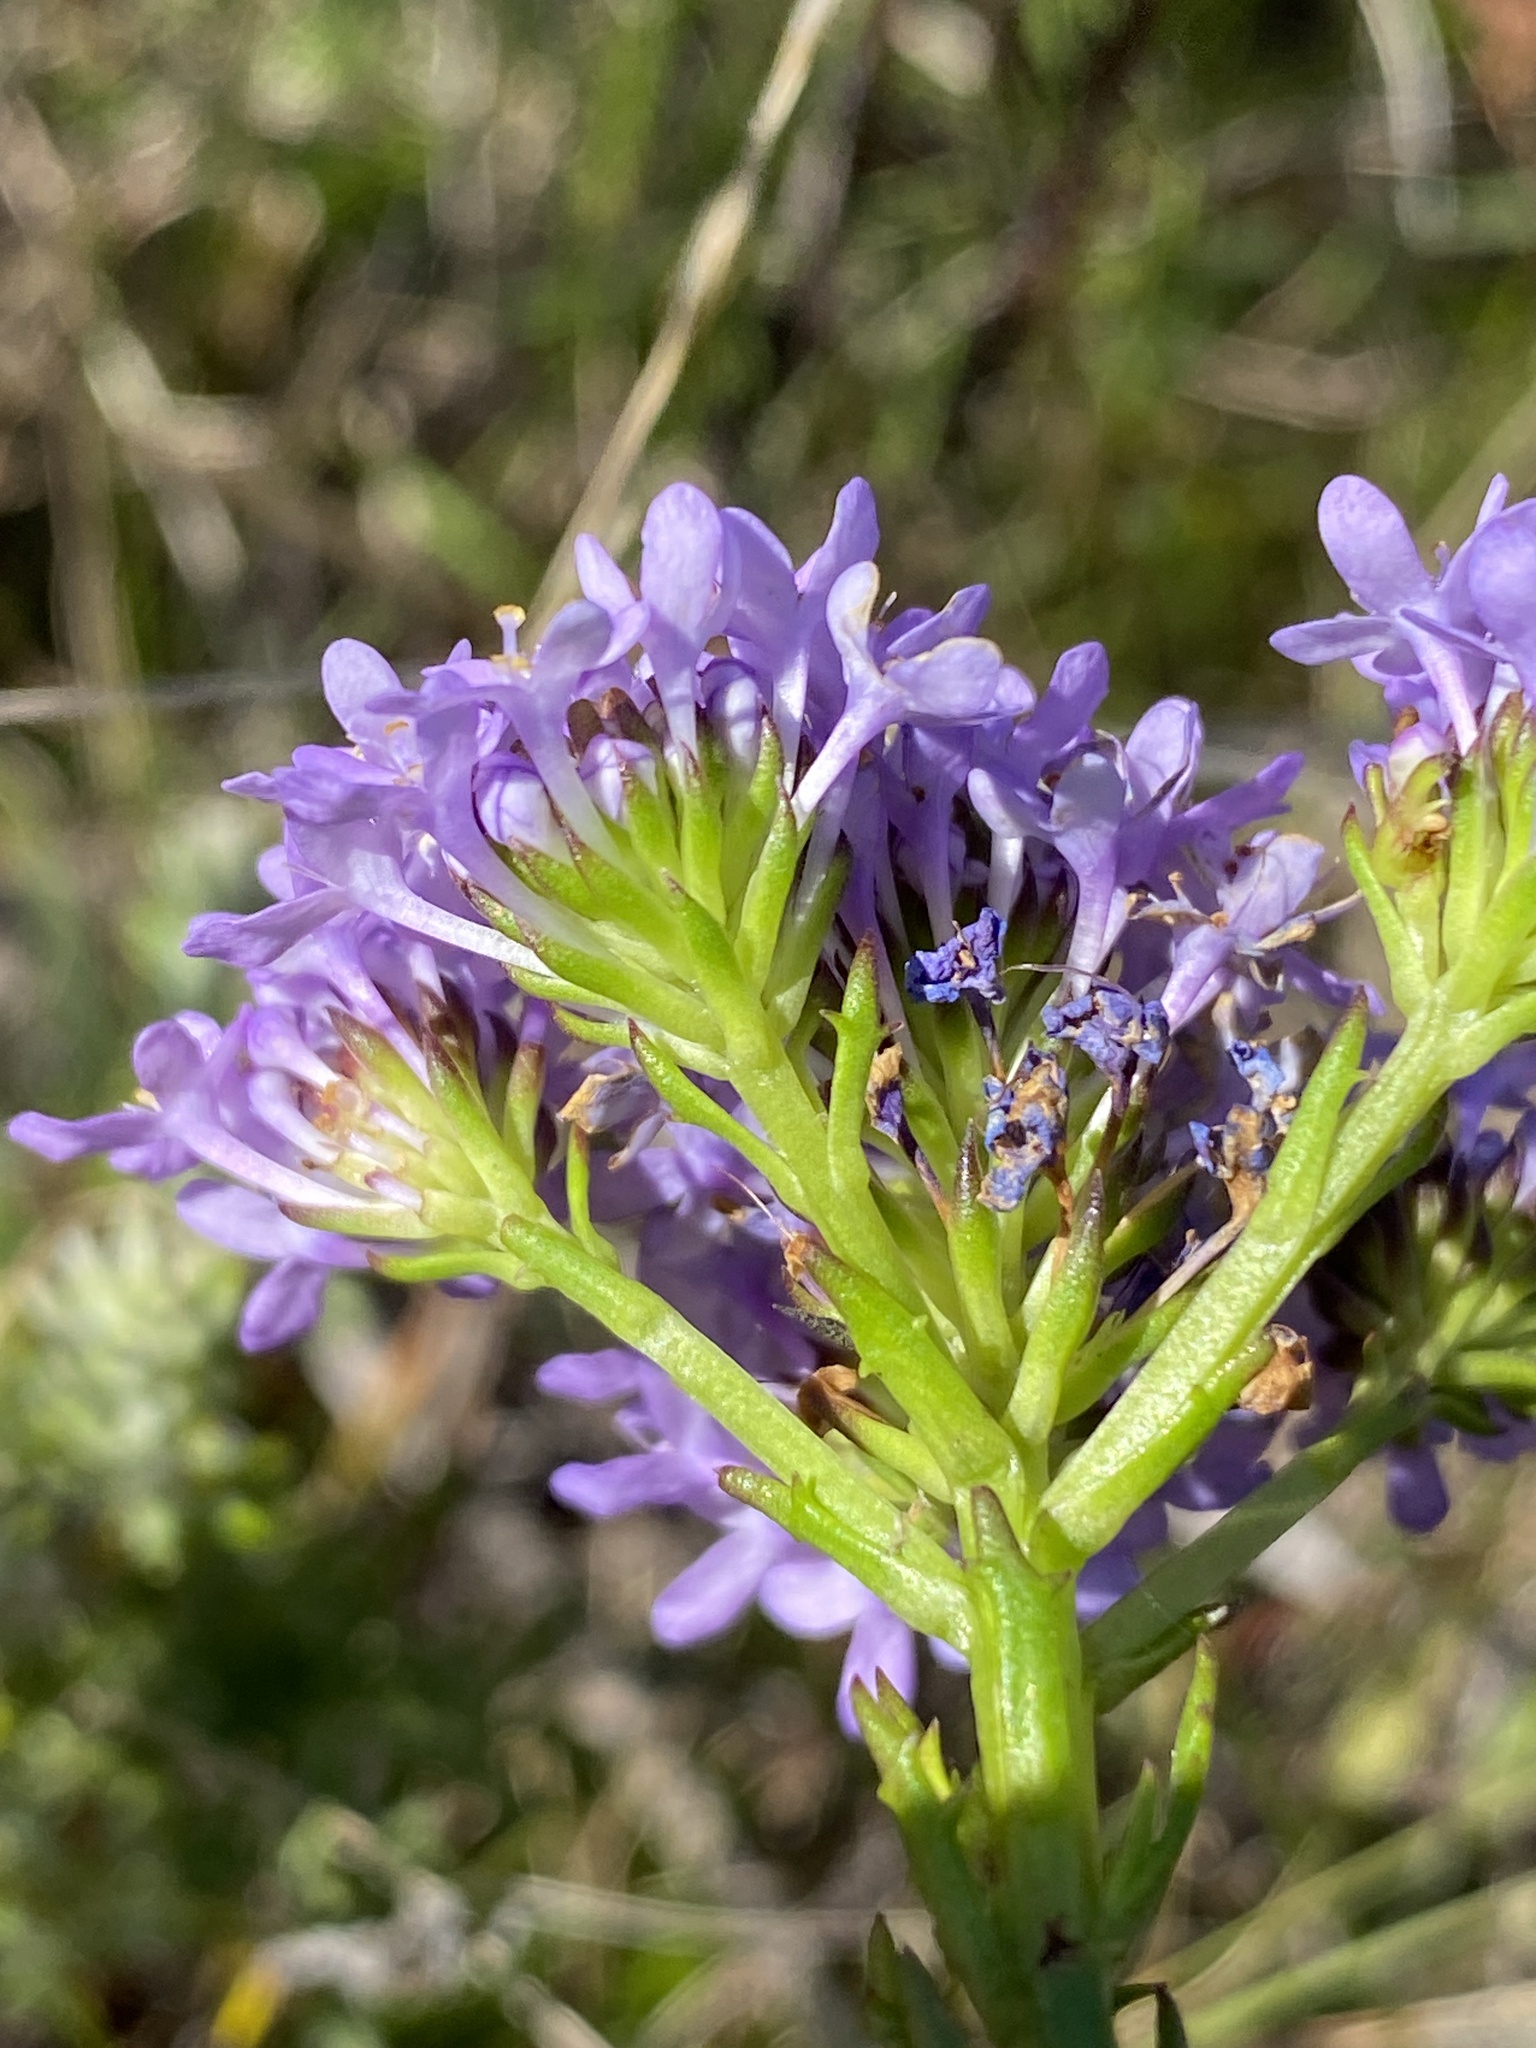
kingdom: Plantae
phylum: Tracheophyta
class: Magnoliopsida
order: Lamiales
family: Scrophulariaceae
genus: Pseudoselago
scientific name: Pseudoselago subglabra
